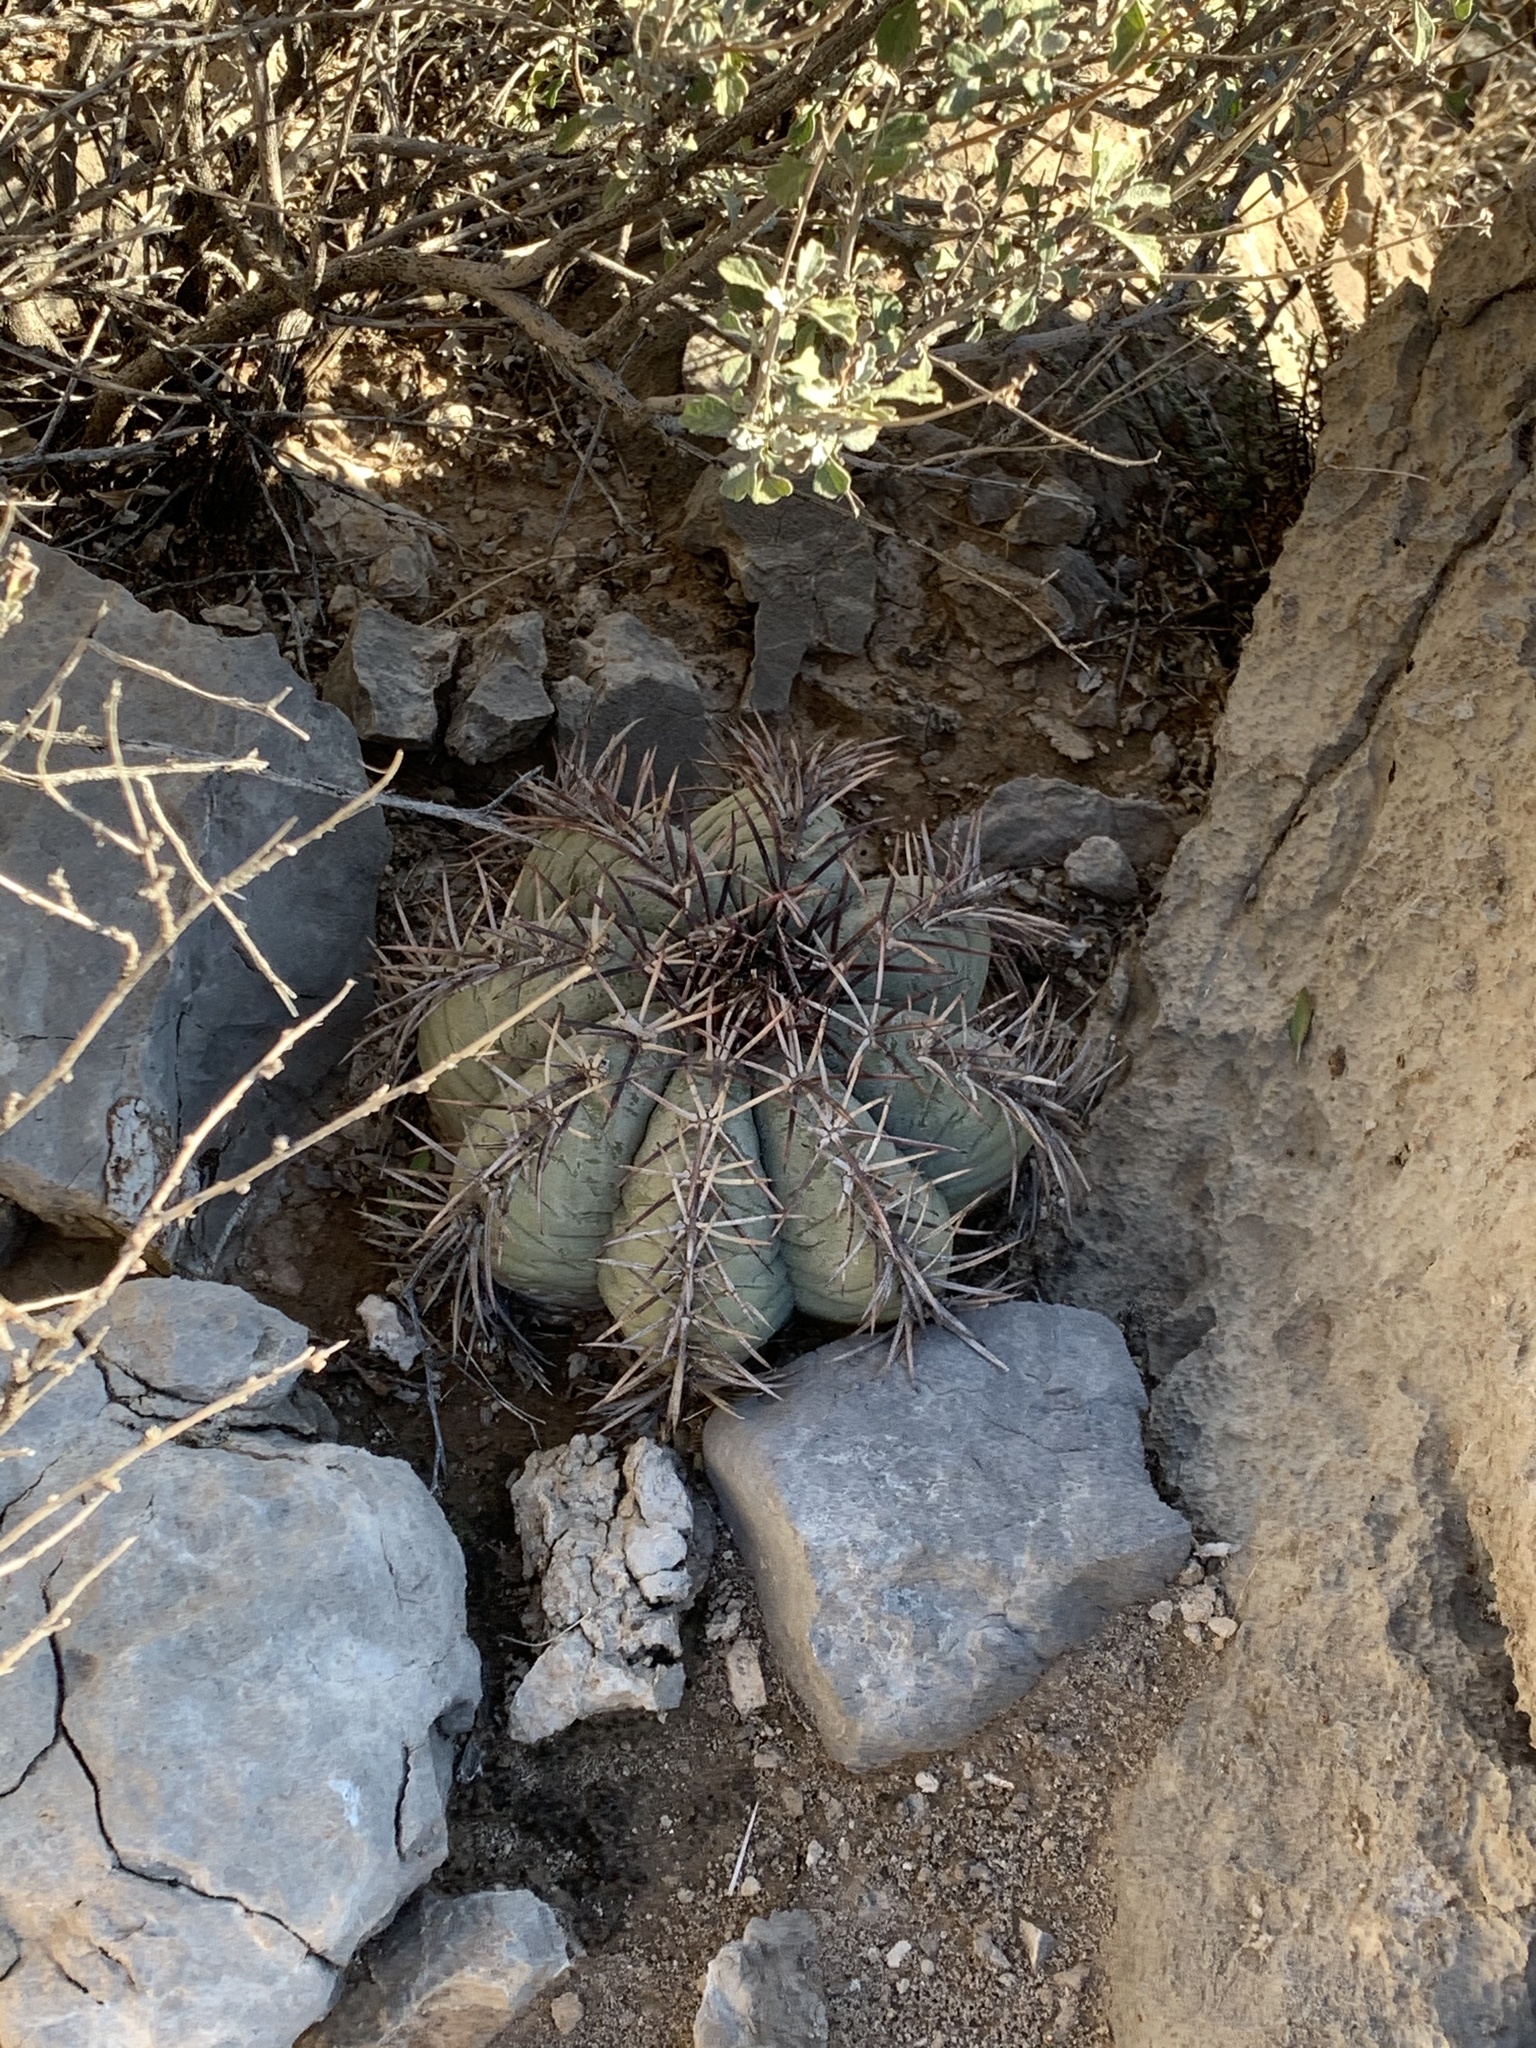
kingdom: Plantae
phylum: Tracheophyta
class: Magnoliopsida
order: Caryophyllales
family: Cactaceae
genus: Echinocactus
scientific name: Echinocactus horizonthalonius
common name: Devilshead
